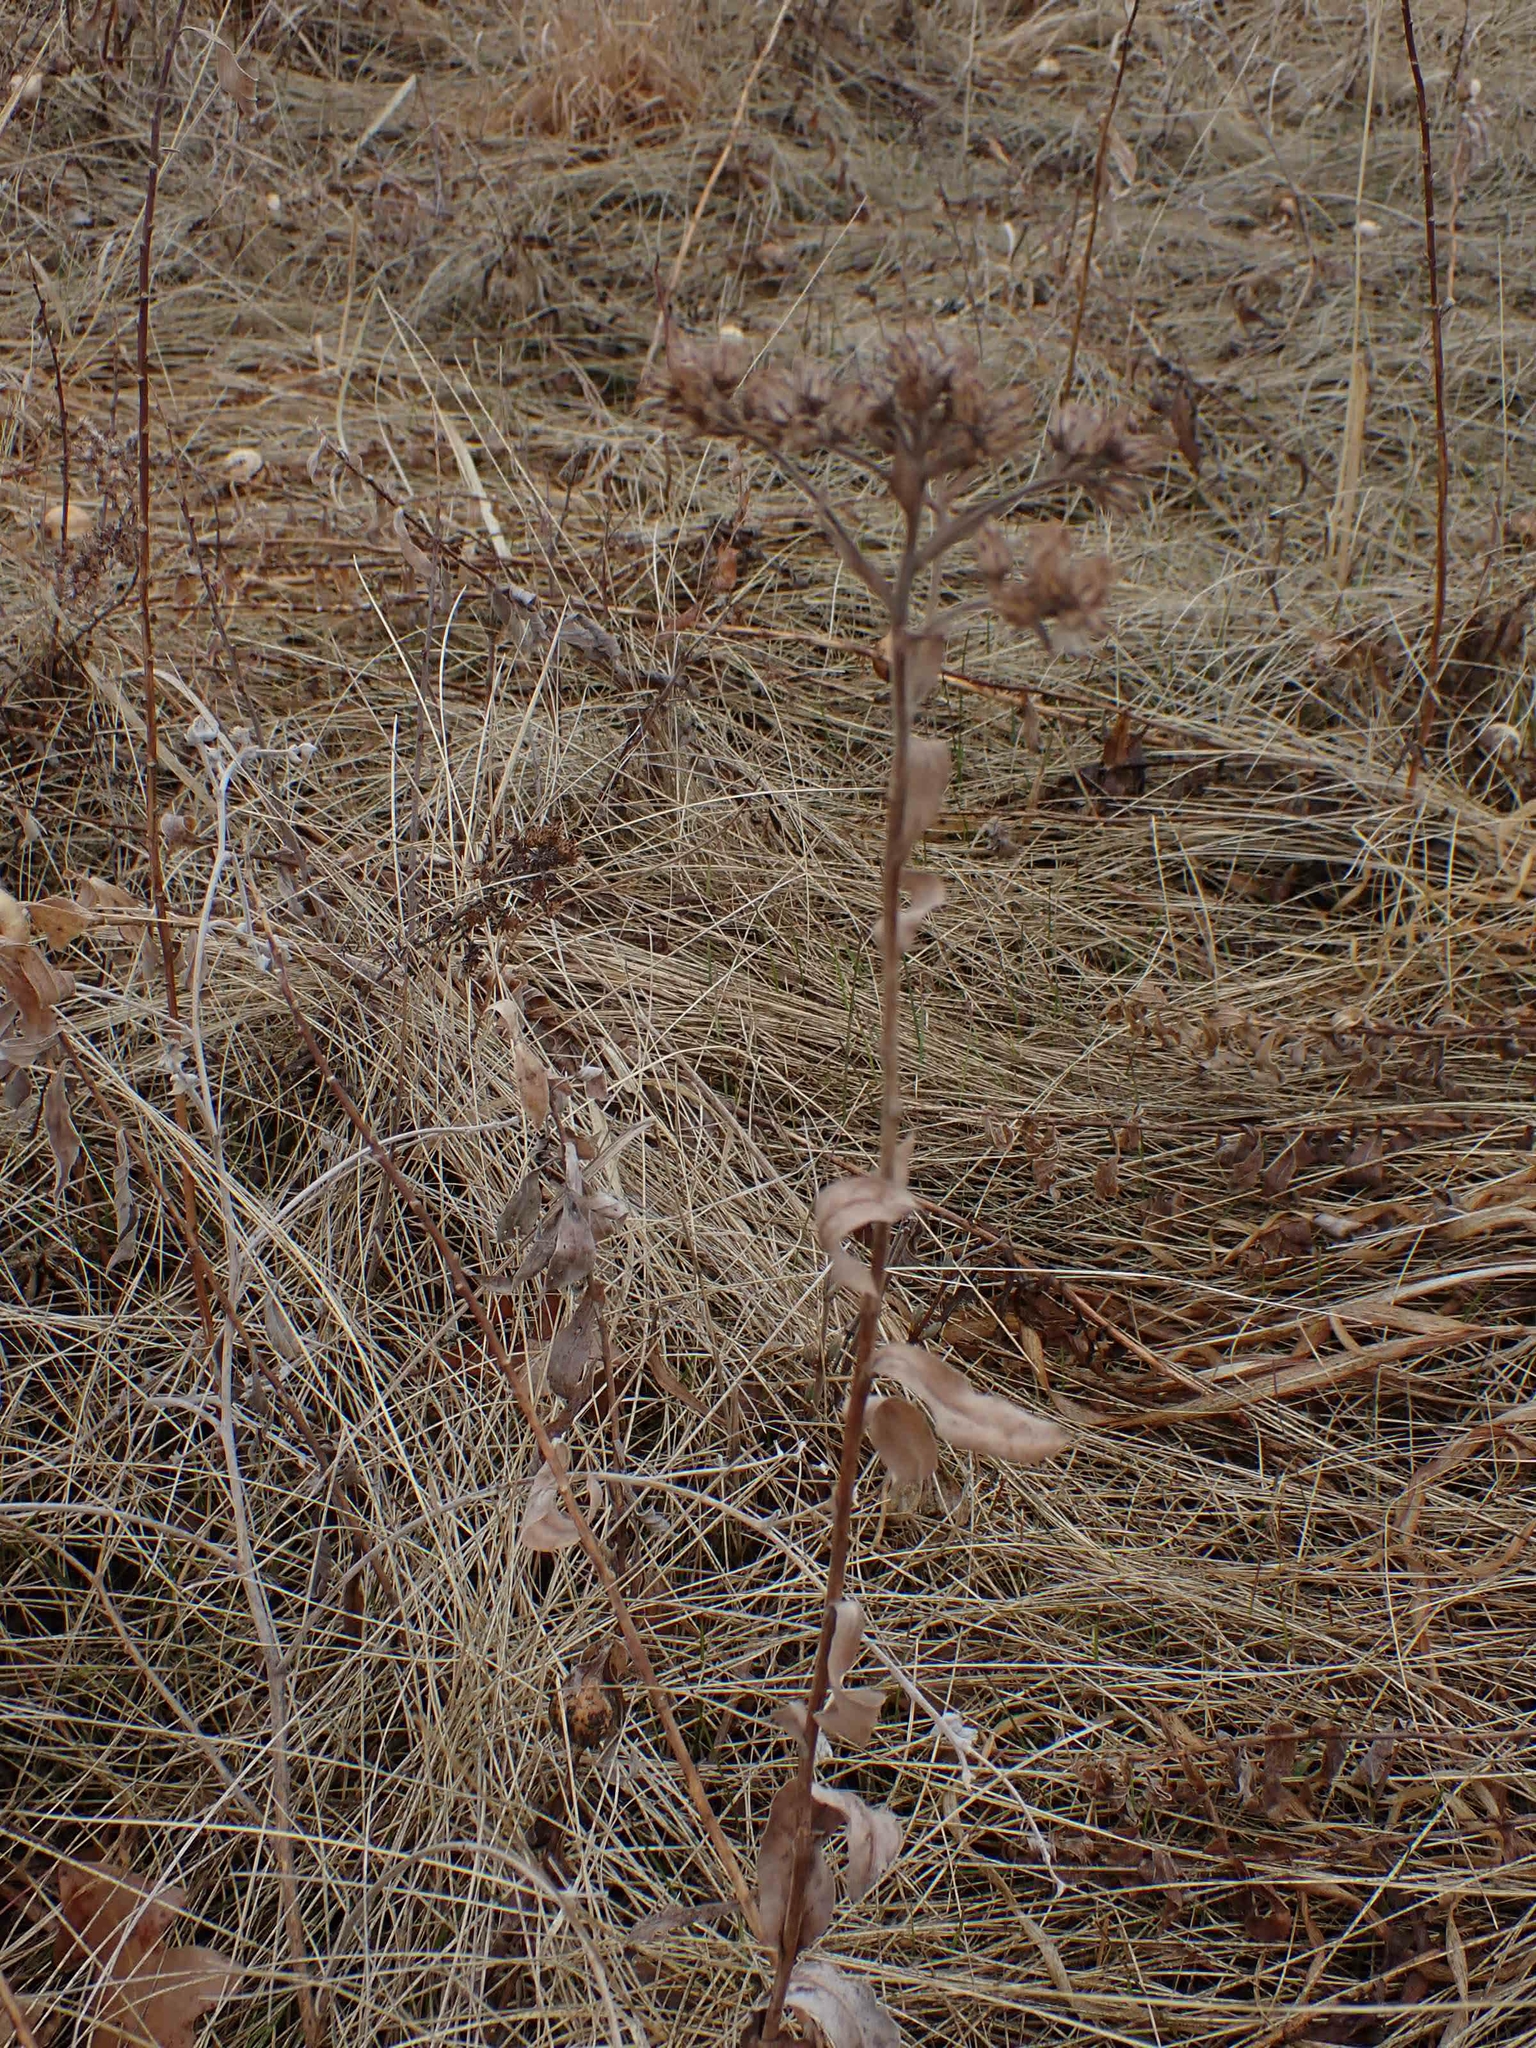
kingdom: Plantae
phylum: Tracheophyta
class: Magnoliopsida
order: Asterales
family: Asteraceae
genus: Solidago
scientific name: Solidago rigida
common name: Rigid goldenrod
